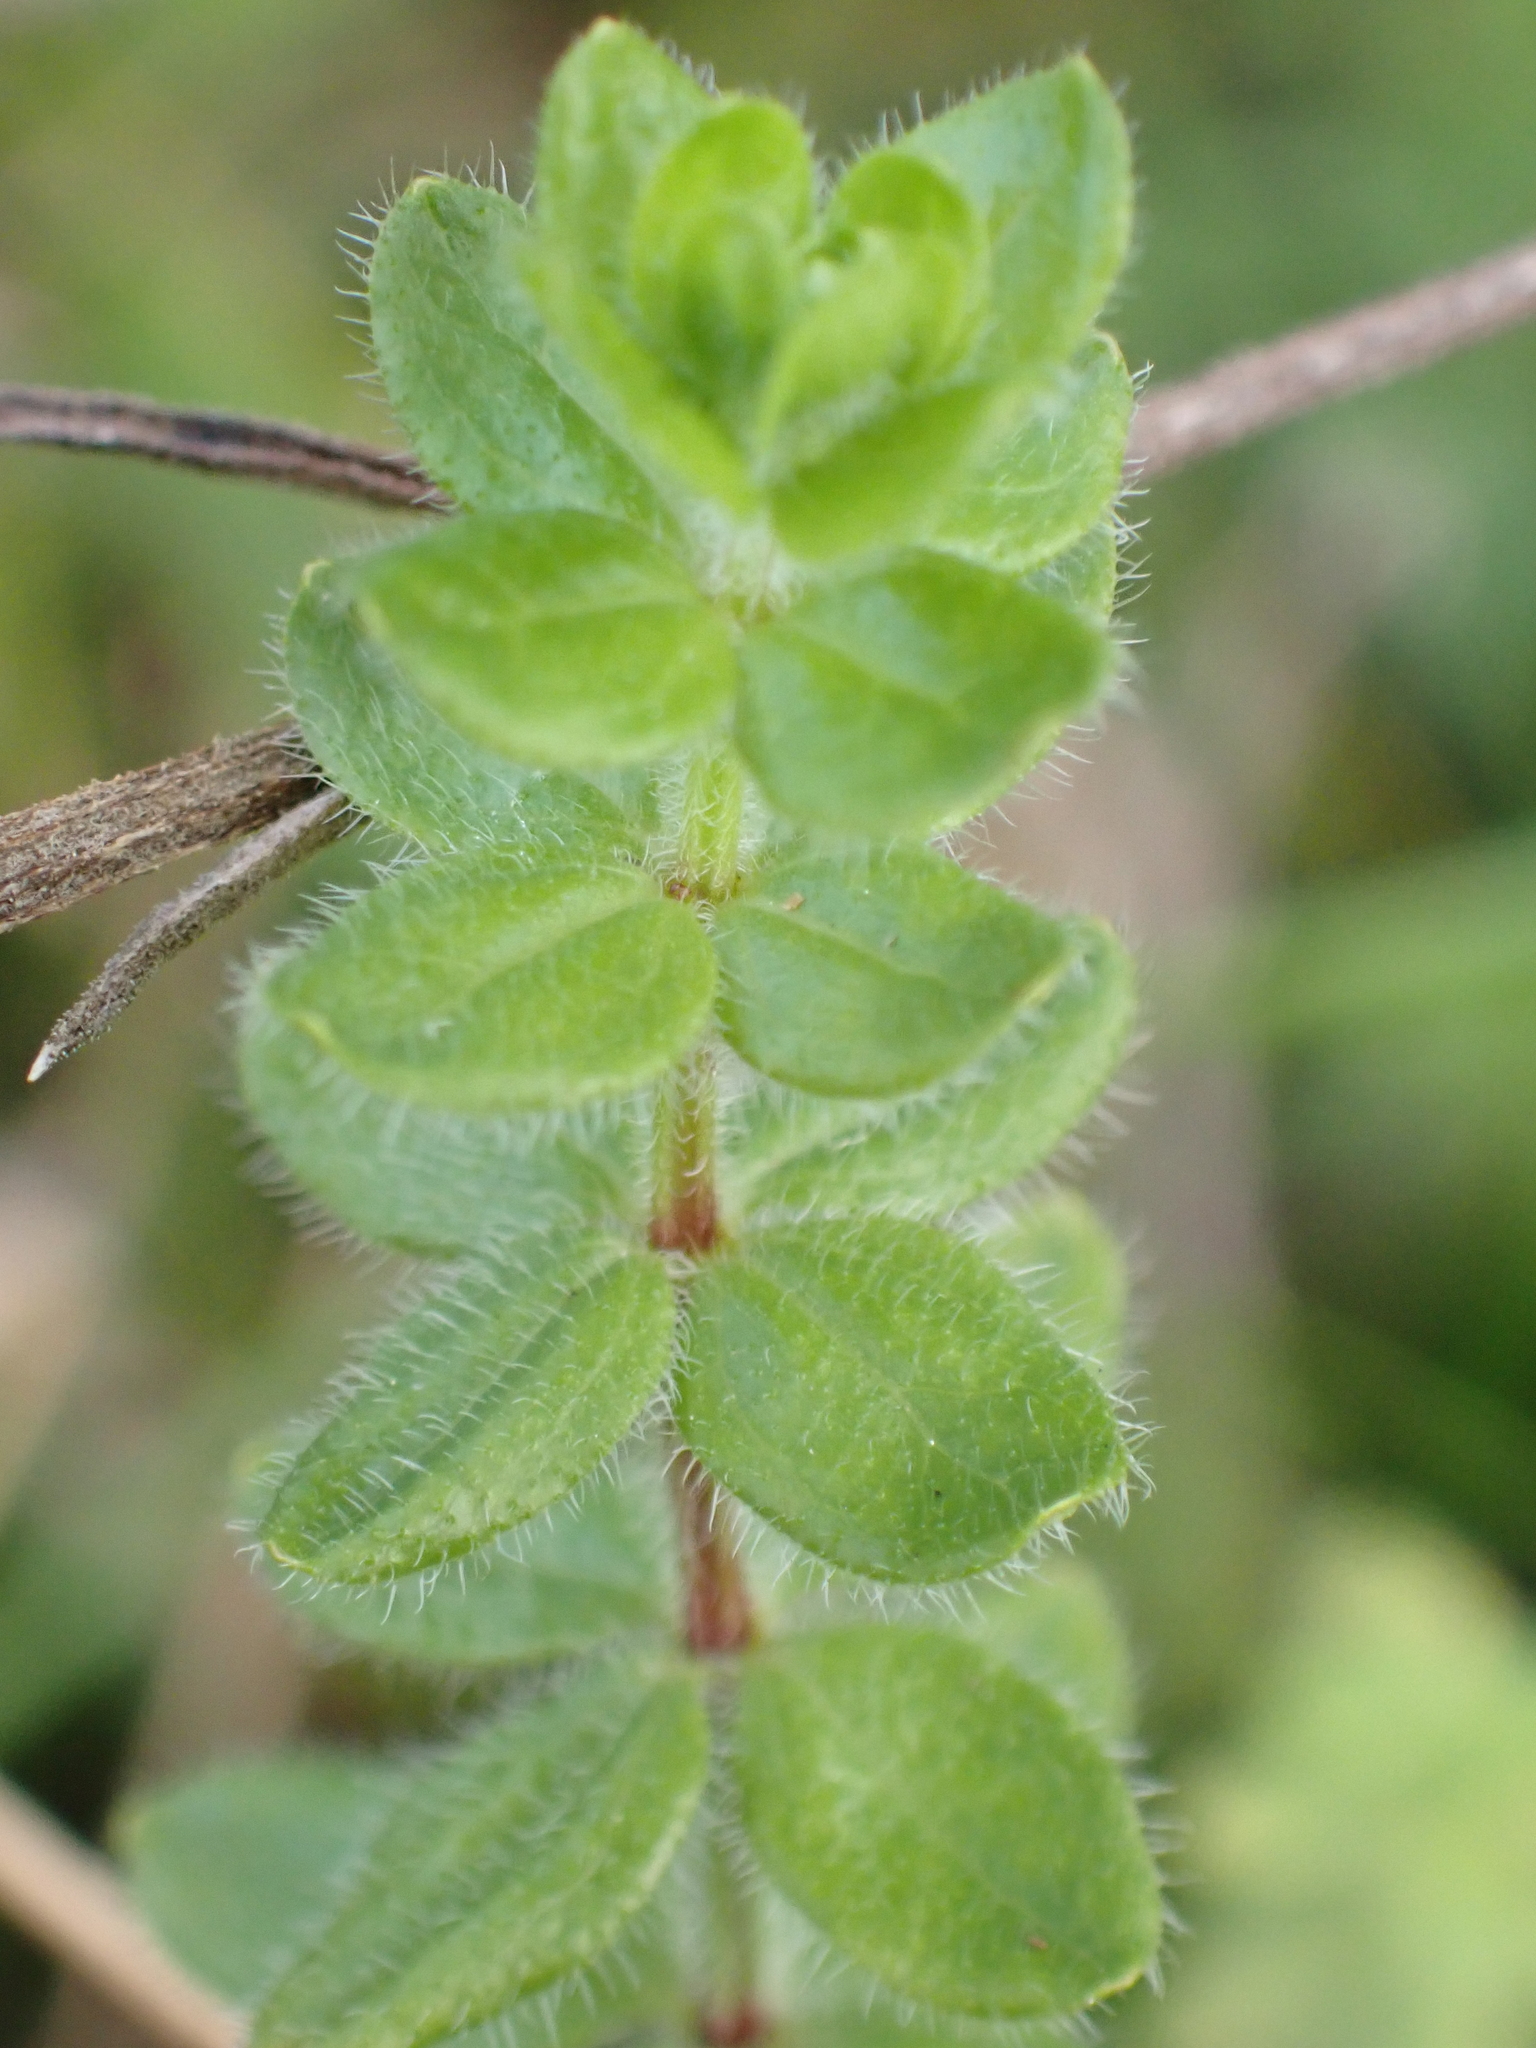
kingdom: Plantae
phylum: Tracheophyta
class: Magnoliopsida
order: Gentianales
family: Rubiaceae
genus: Cruciata
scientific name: Cruciata laevipes
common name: Crosswort
